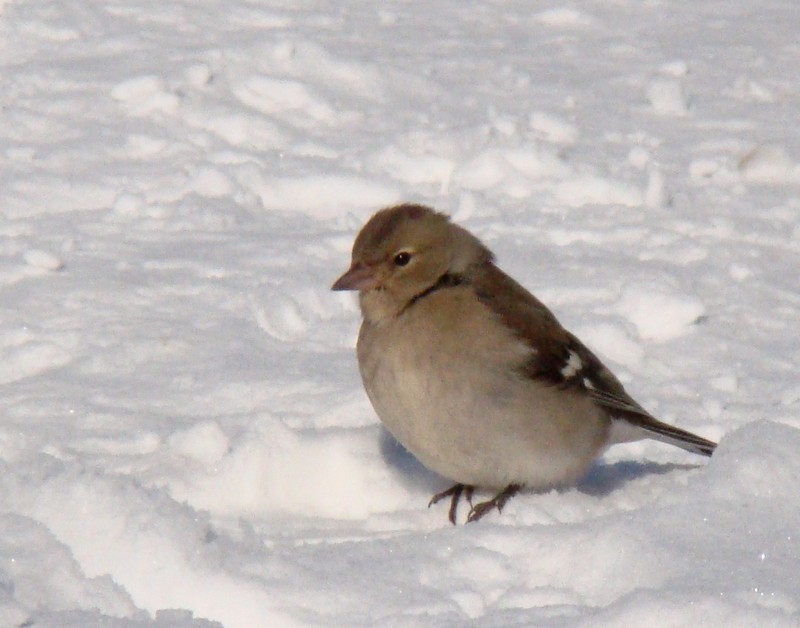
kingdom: Animalia
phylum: Chordata
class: Aves
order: Passeriformes
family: Fringillidae
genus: Fringilla
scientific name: Fringilla coelebs
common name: Common chaffinch
